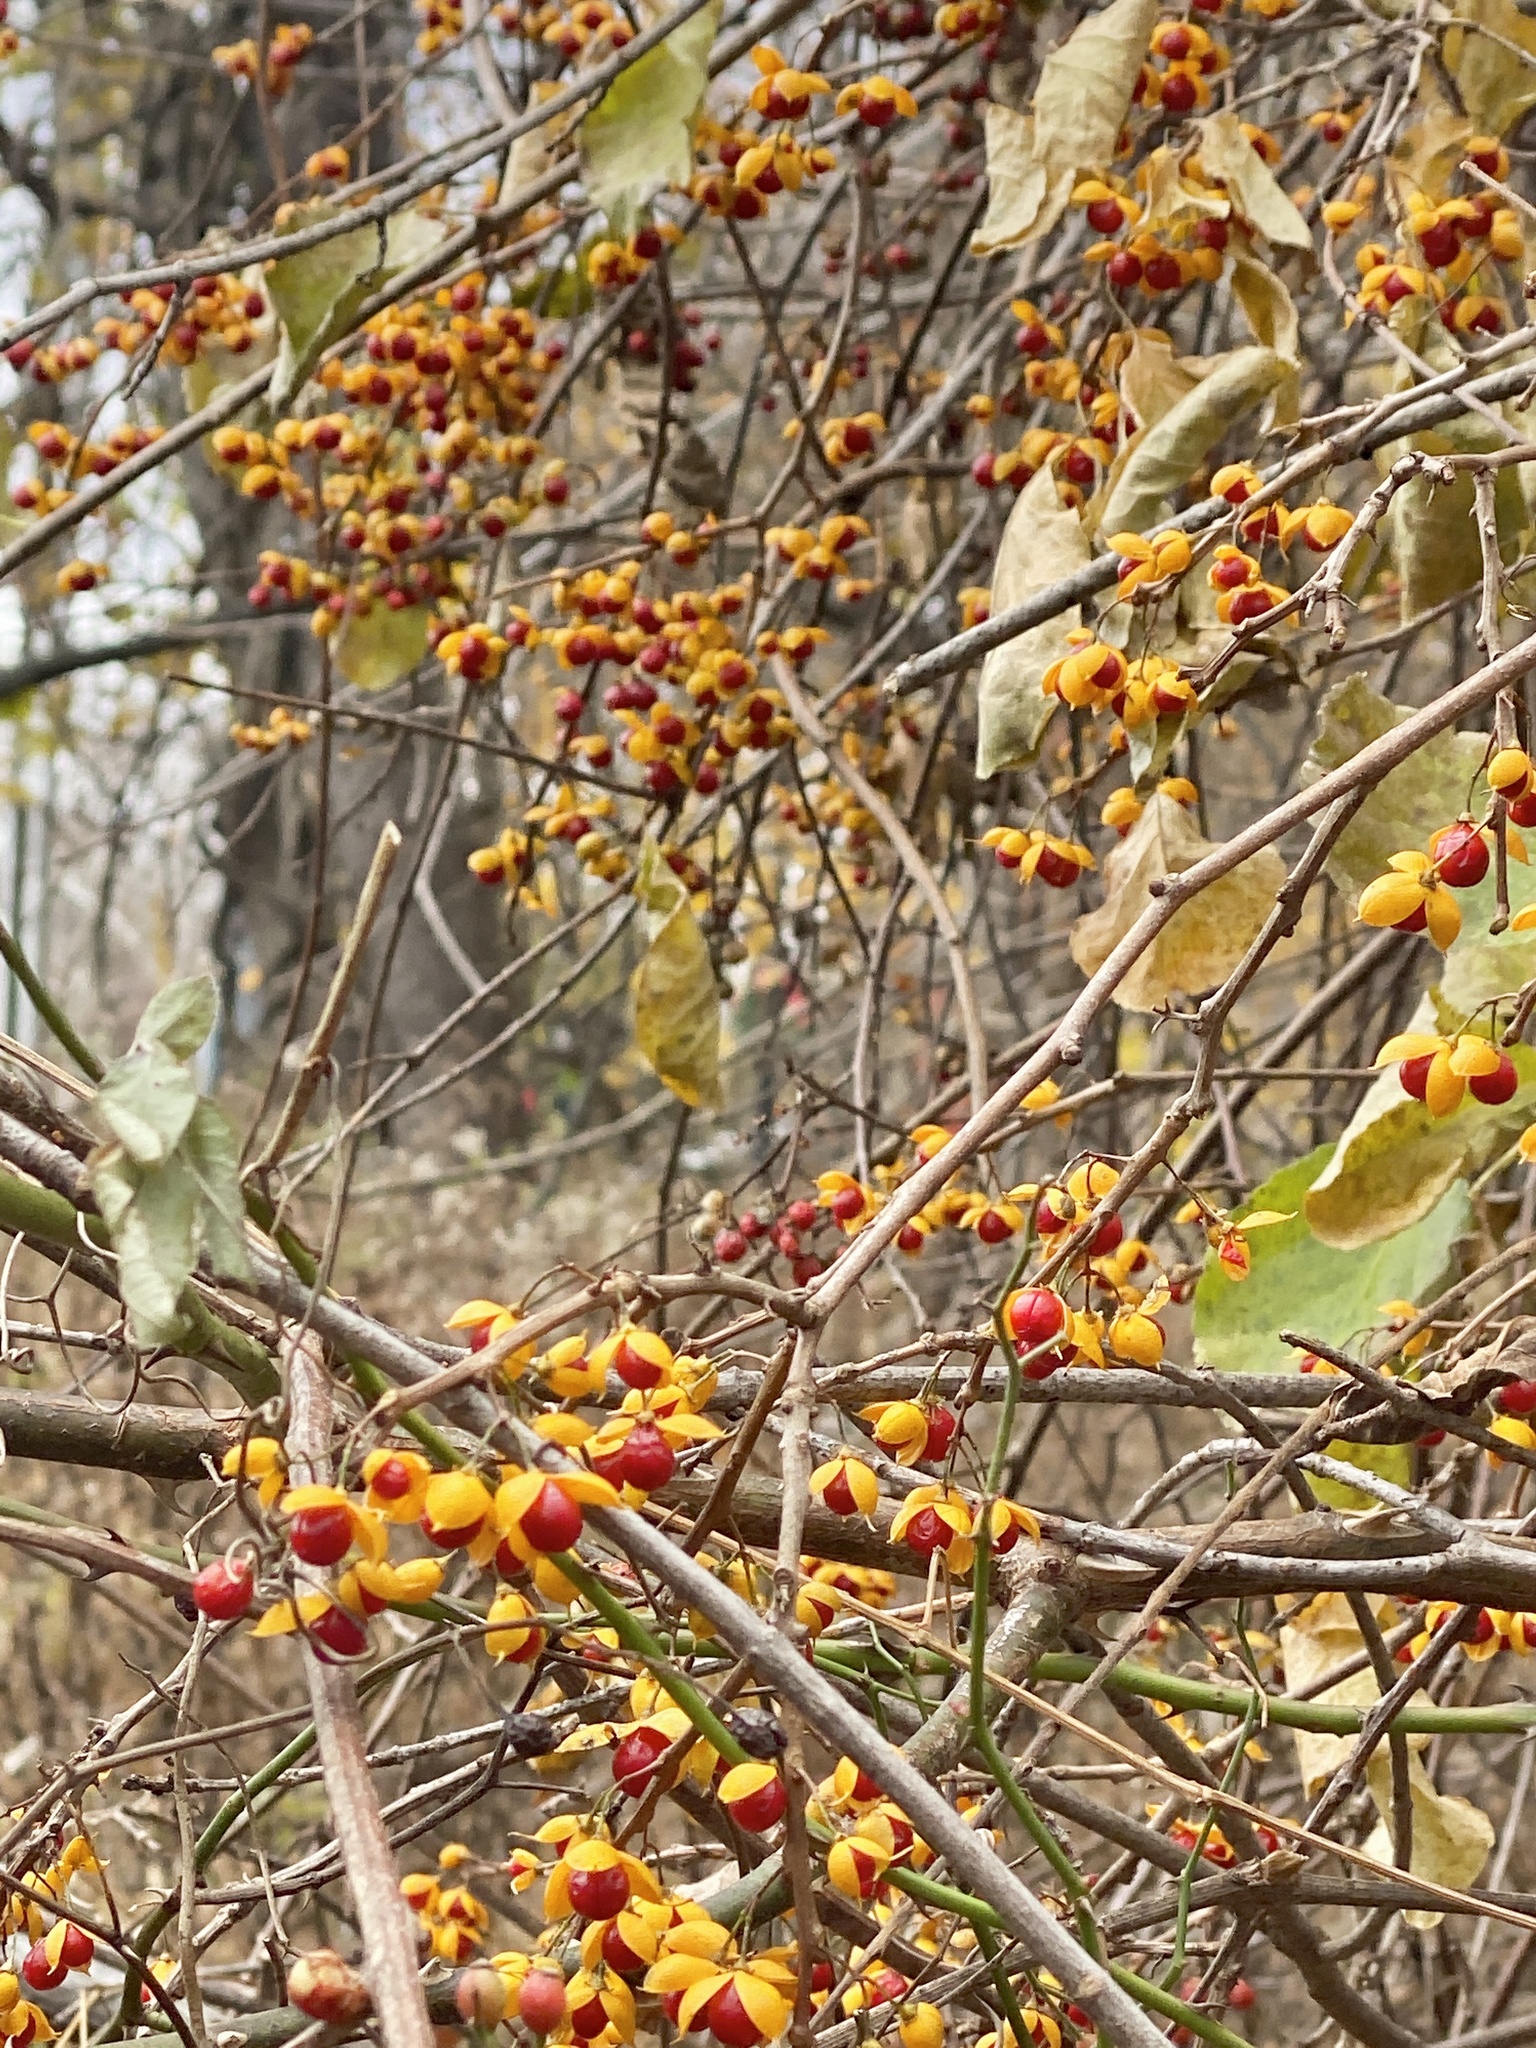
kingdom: Plantae
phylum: Tracheophyta
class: Magnoliopsida
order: Celastrales
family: Celastraceae
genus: Celastrus
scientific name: Celastrus orbiculatus
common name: Oriental bittersweet
